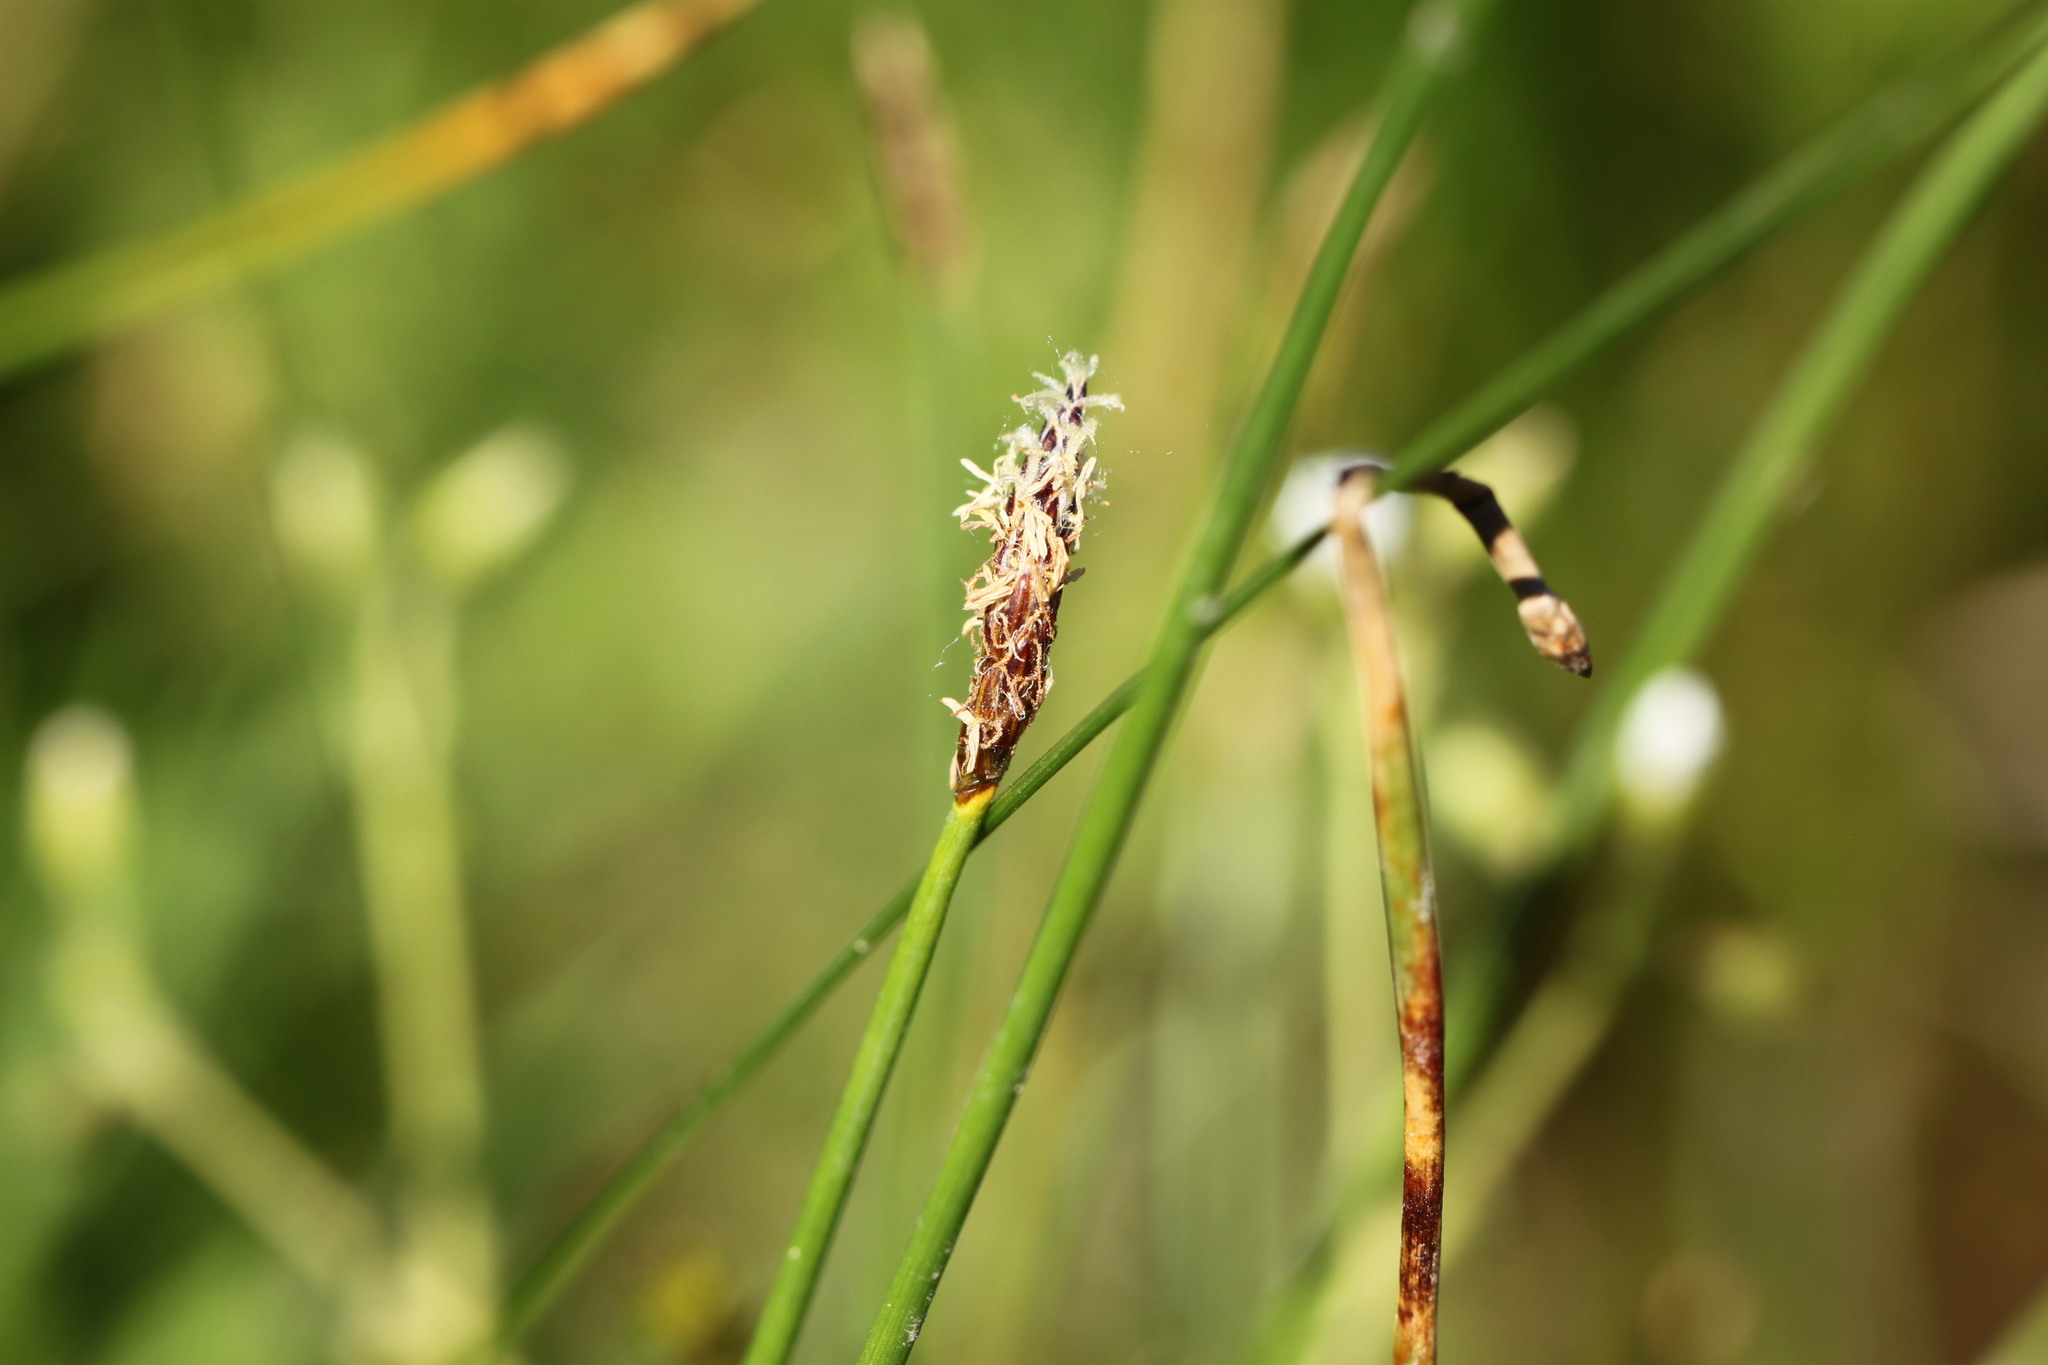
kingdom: Plantae
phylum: Tracheophyta
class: Liliopsida
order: Poales
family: Cyperaceae
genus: Eleocharis
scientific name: Eleocharis palustris
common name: Common spike-rush
